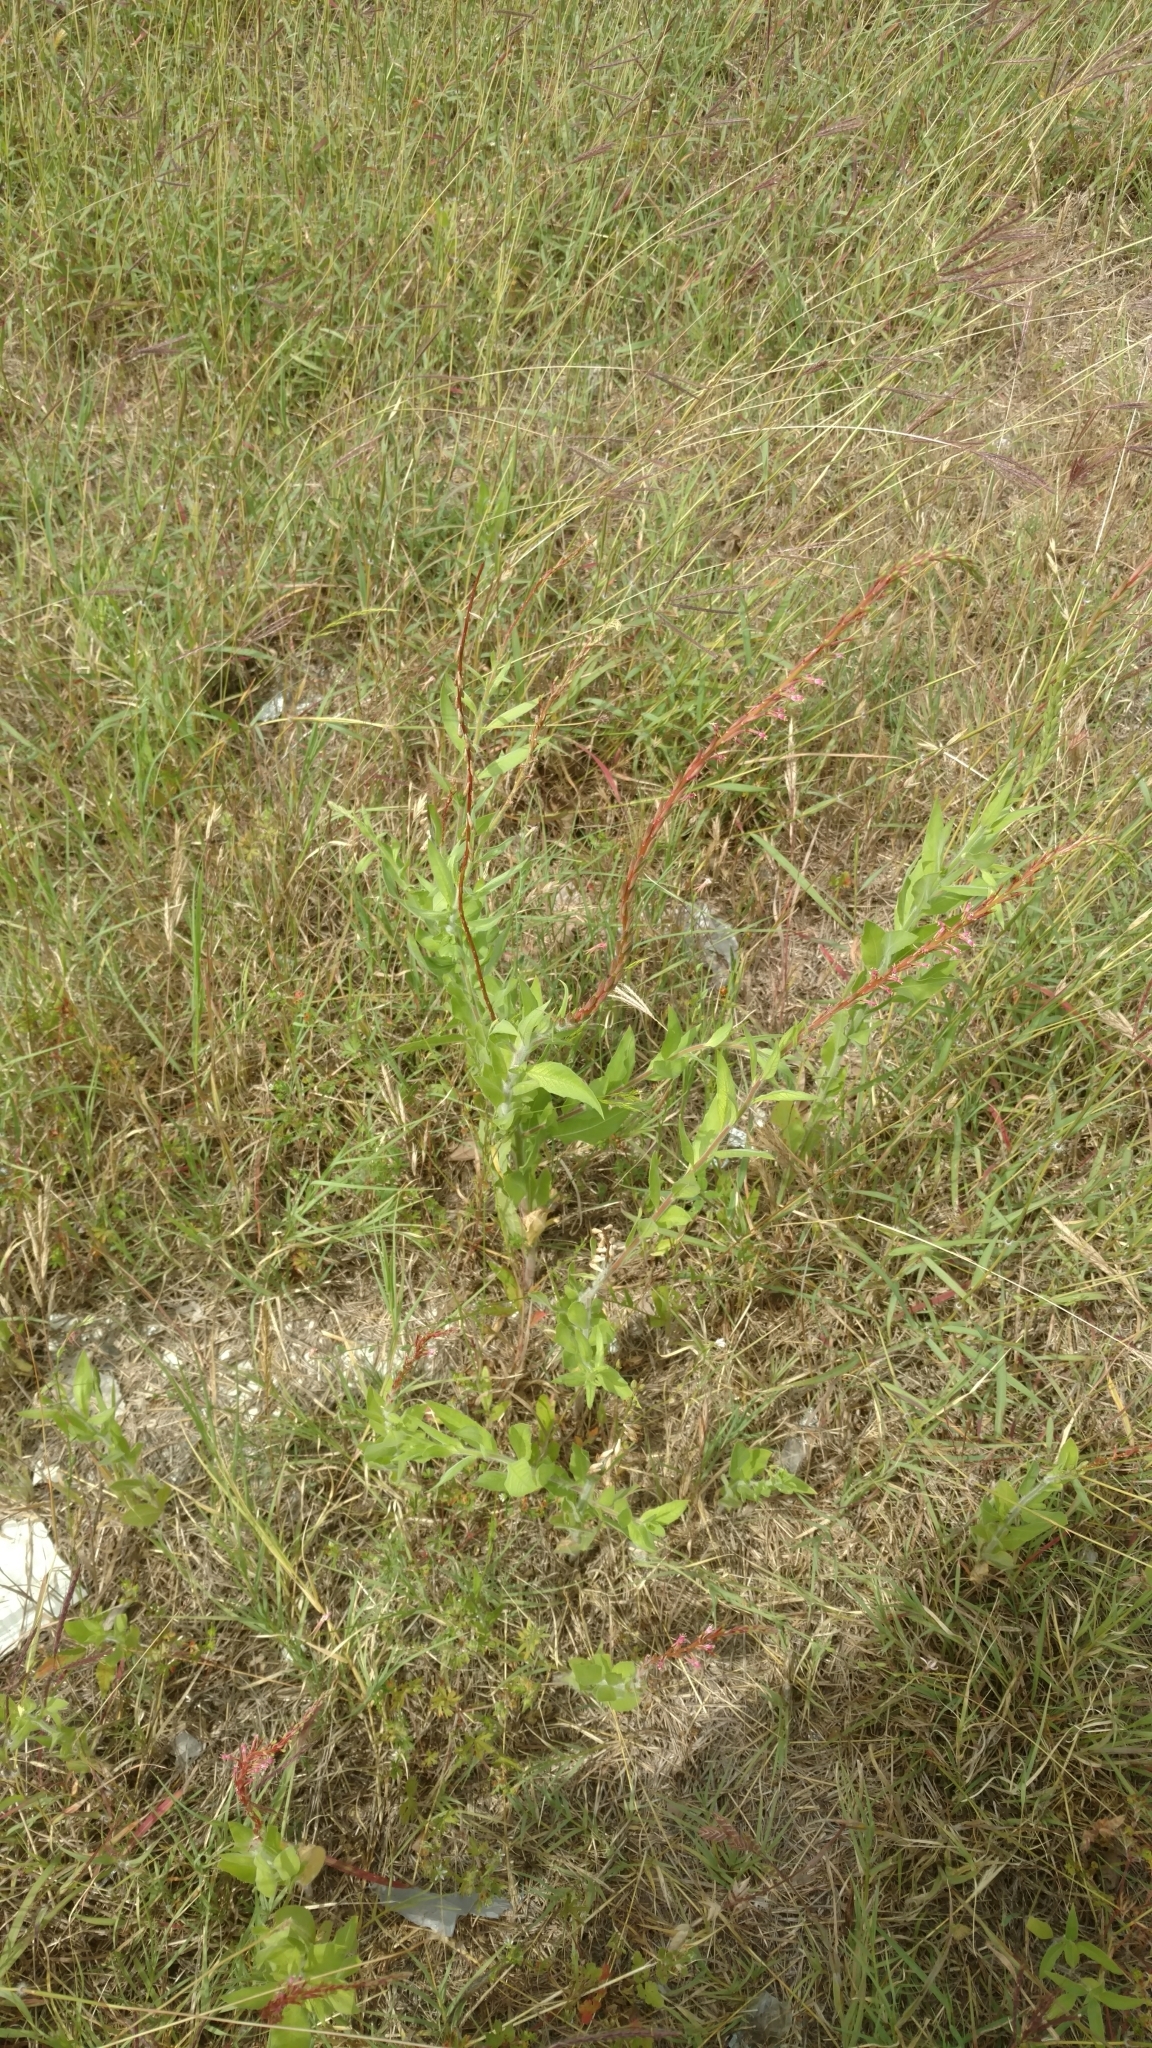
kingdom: Plantae
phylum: Tracheophyta
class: Magnoliopsida
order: Myrtales
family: Onagraceae
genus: Oenothera
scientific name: Oenothera curtiflora
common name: Velvetweed
